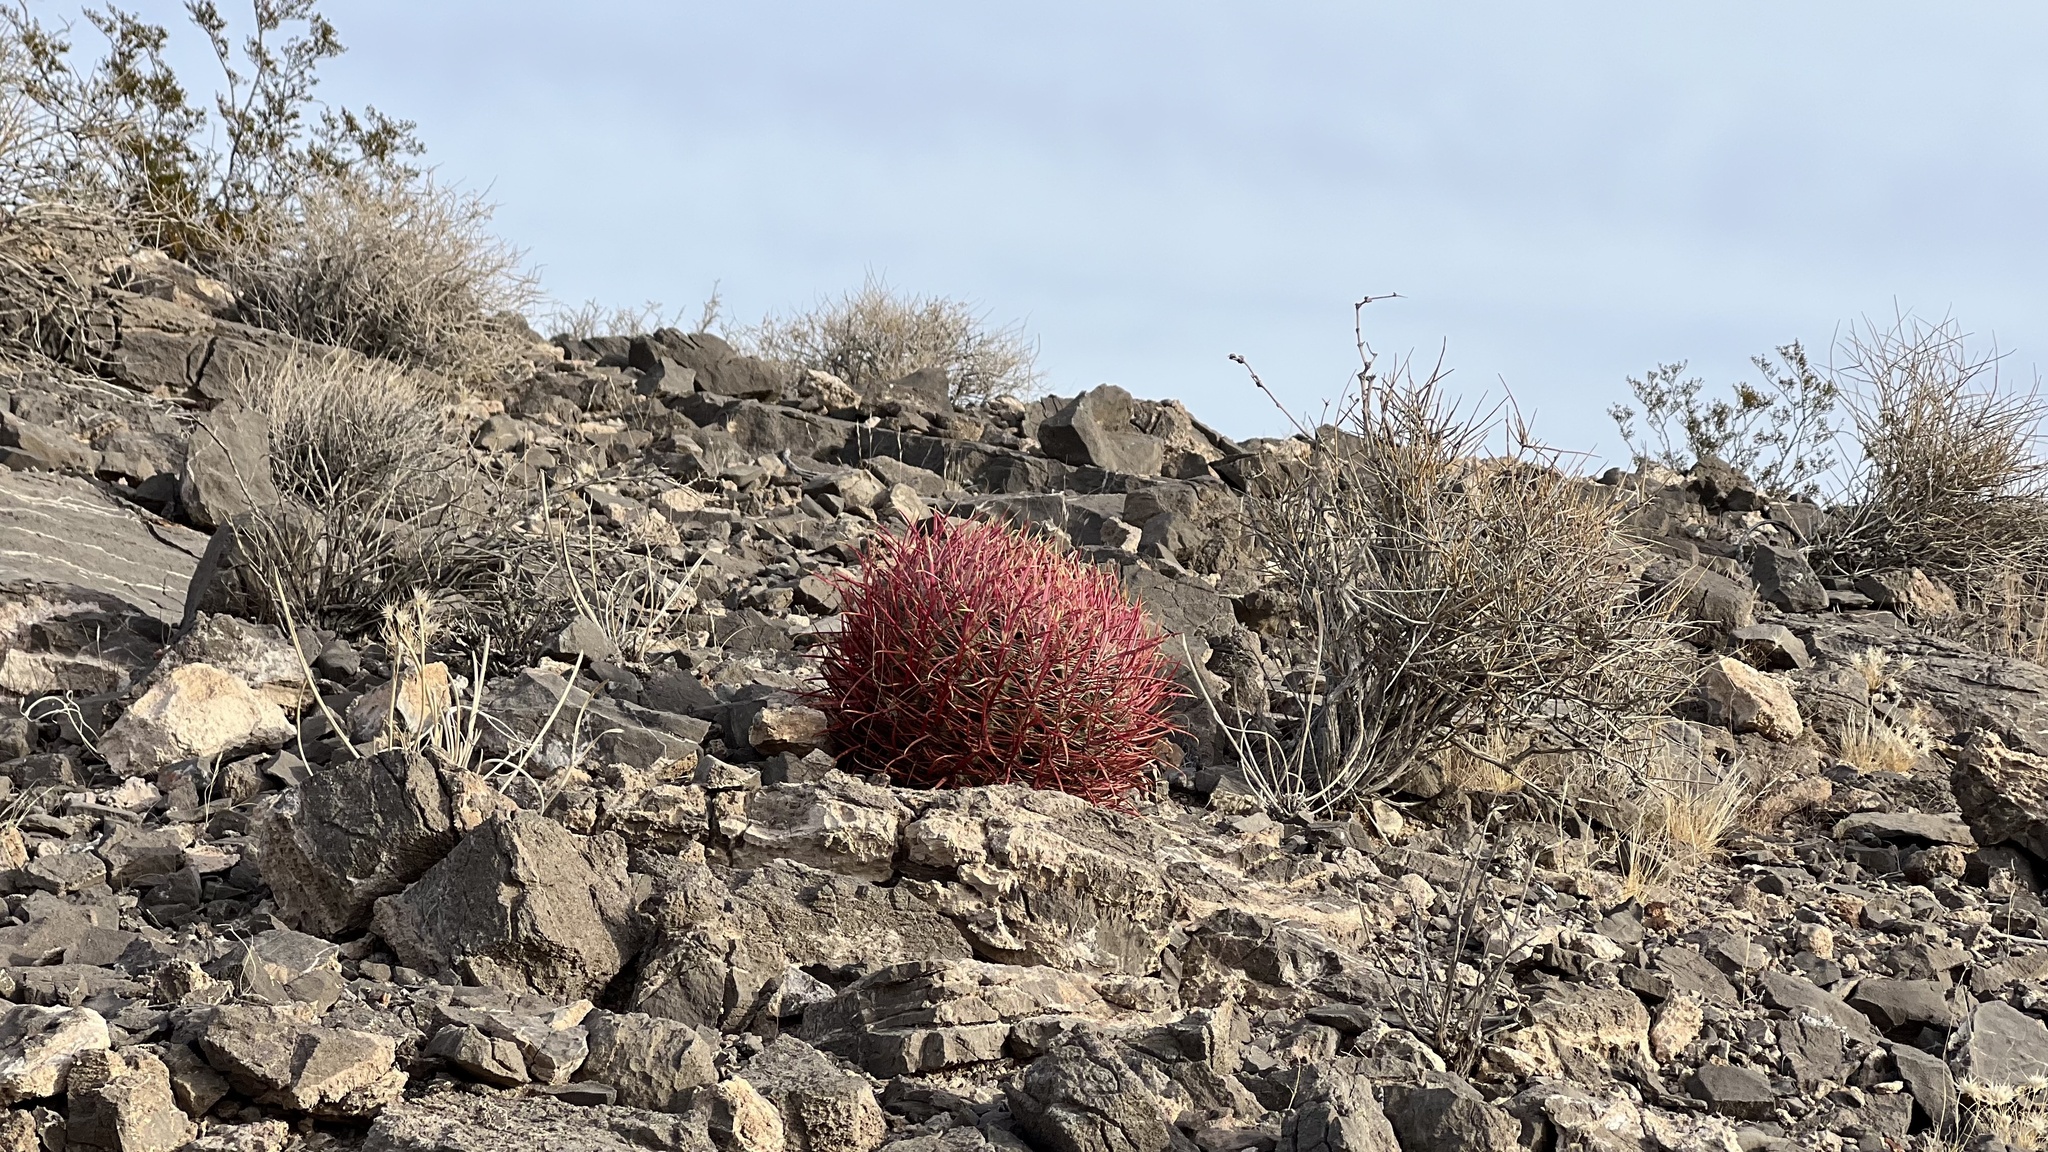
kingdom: Plantae
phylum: Tracheophyta
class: Magnoliopsida
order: Caryophyllales
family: Cactaceae
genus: Ferocactus
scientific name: Ferocactus cylindraceus
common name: California barrel cactus
